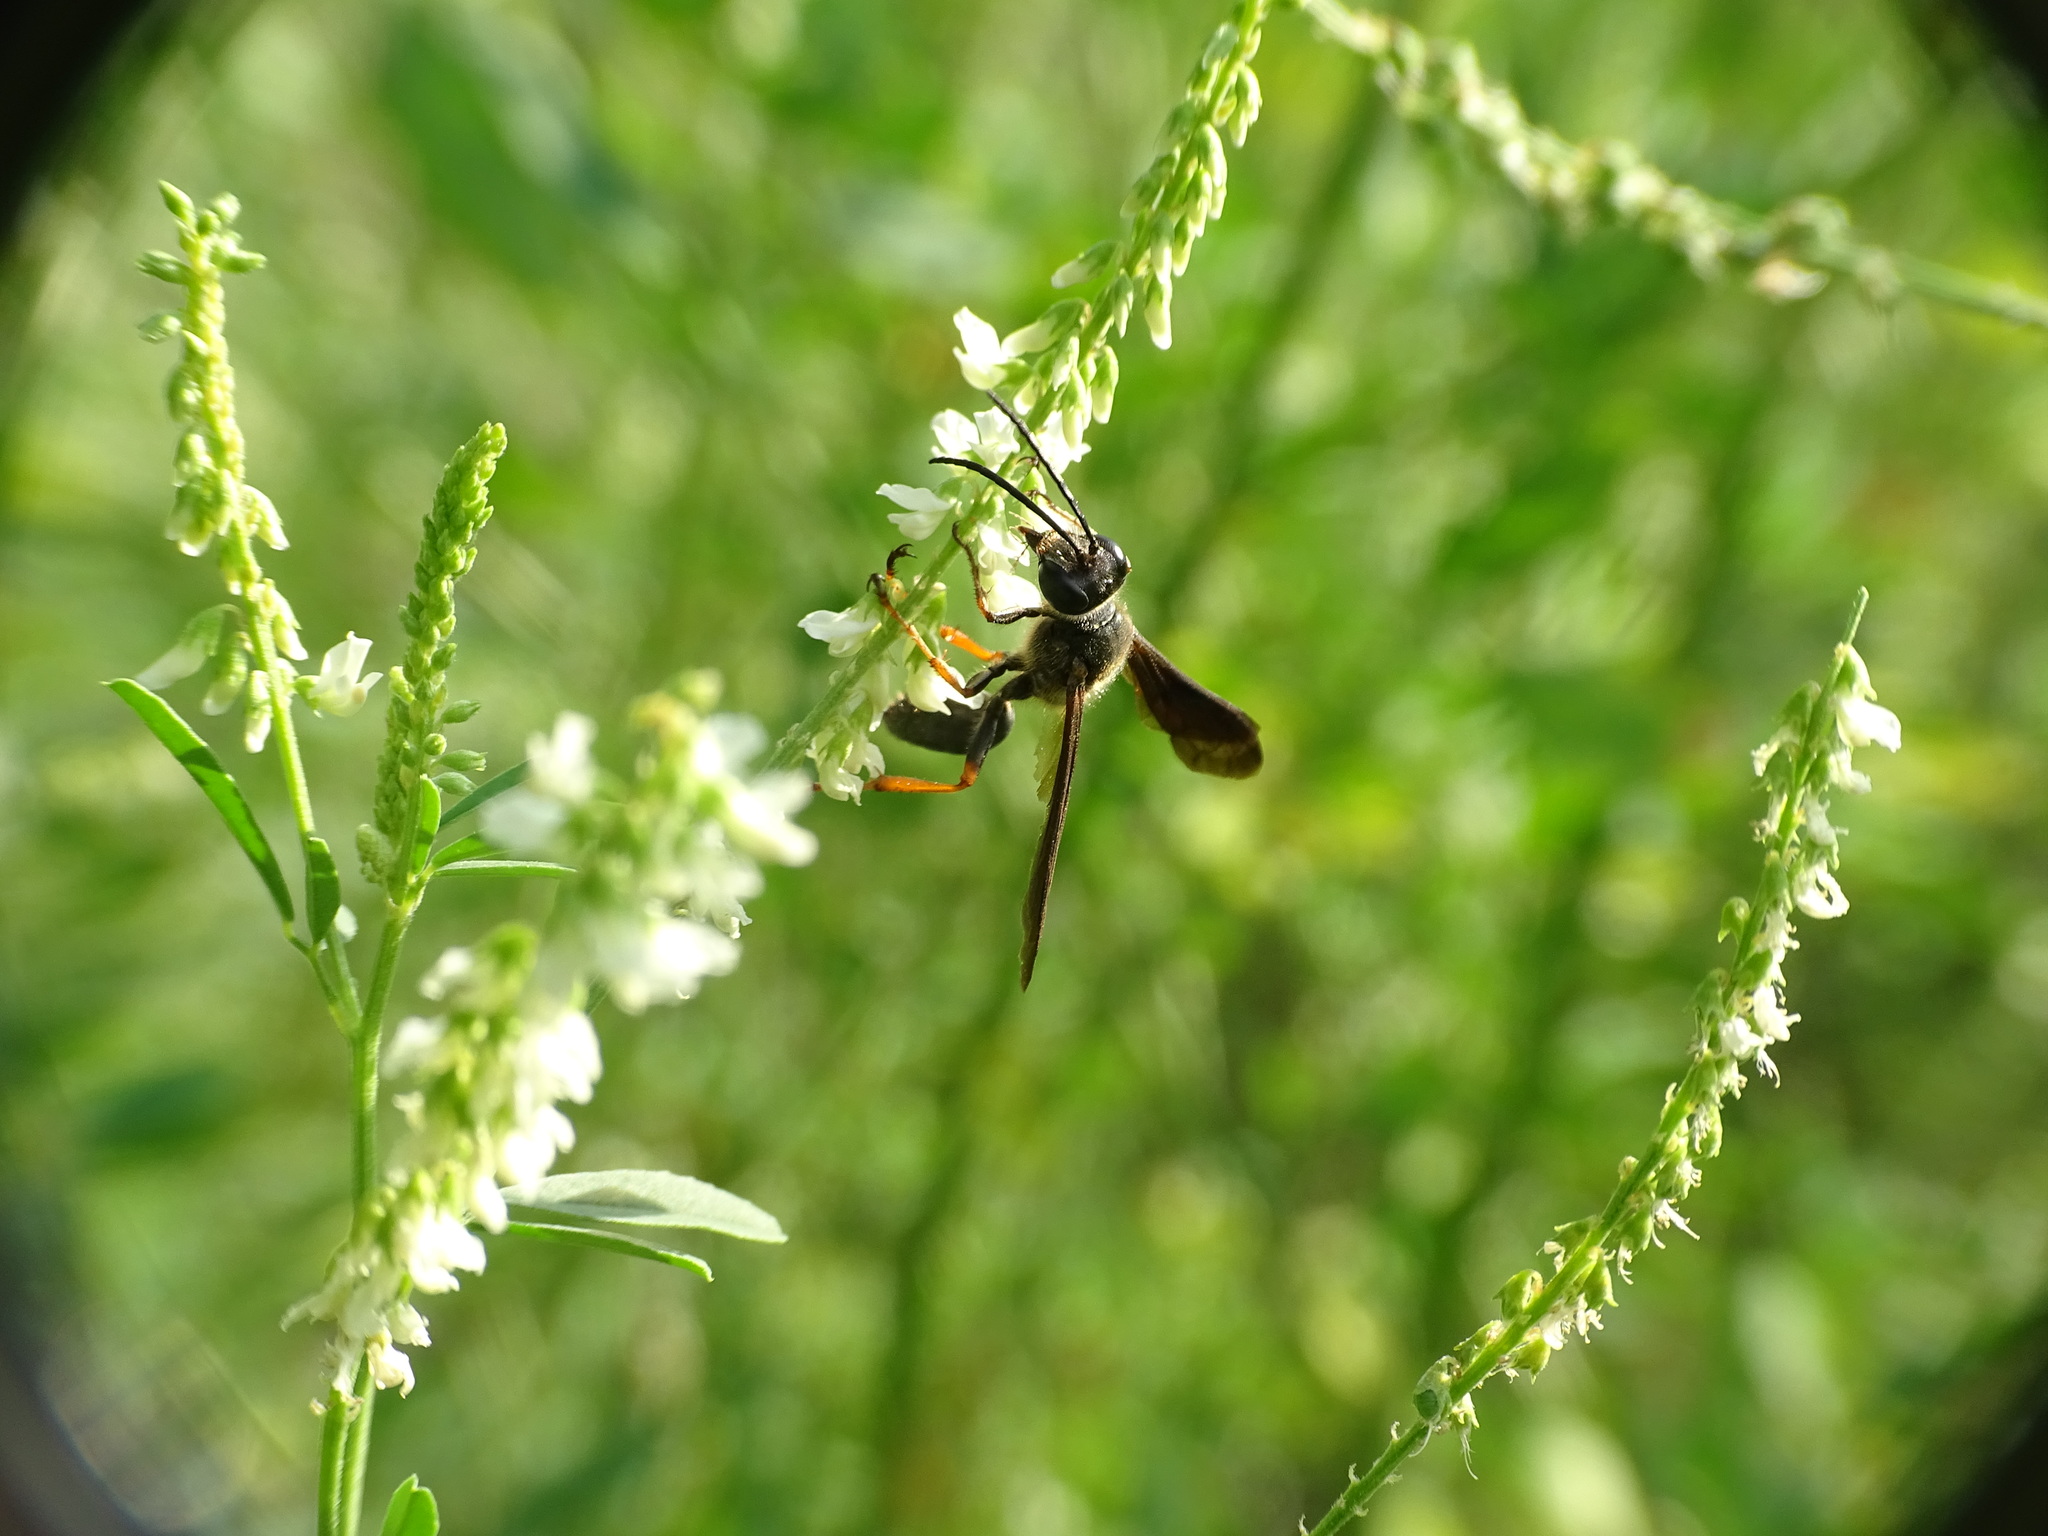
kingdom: Animalia
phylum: Arthropoda
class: Insecta
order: Hymenoptera
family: Sphecidae
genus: Isodontia
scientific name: Isodontia auripes
